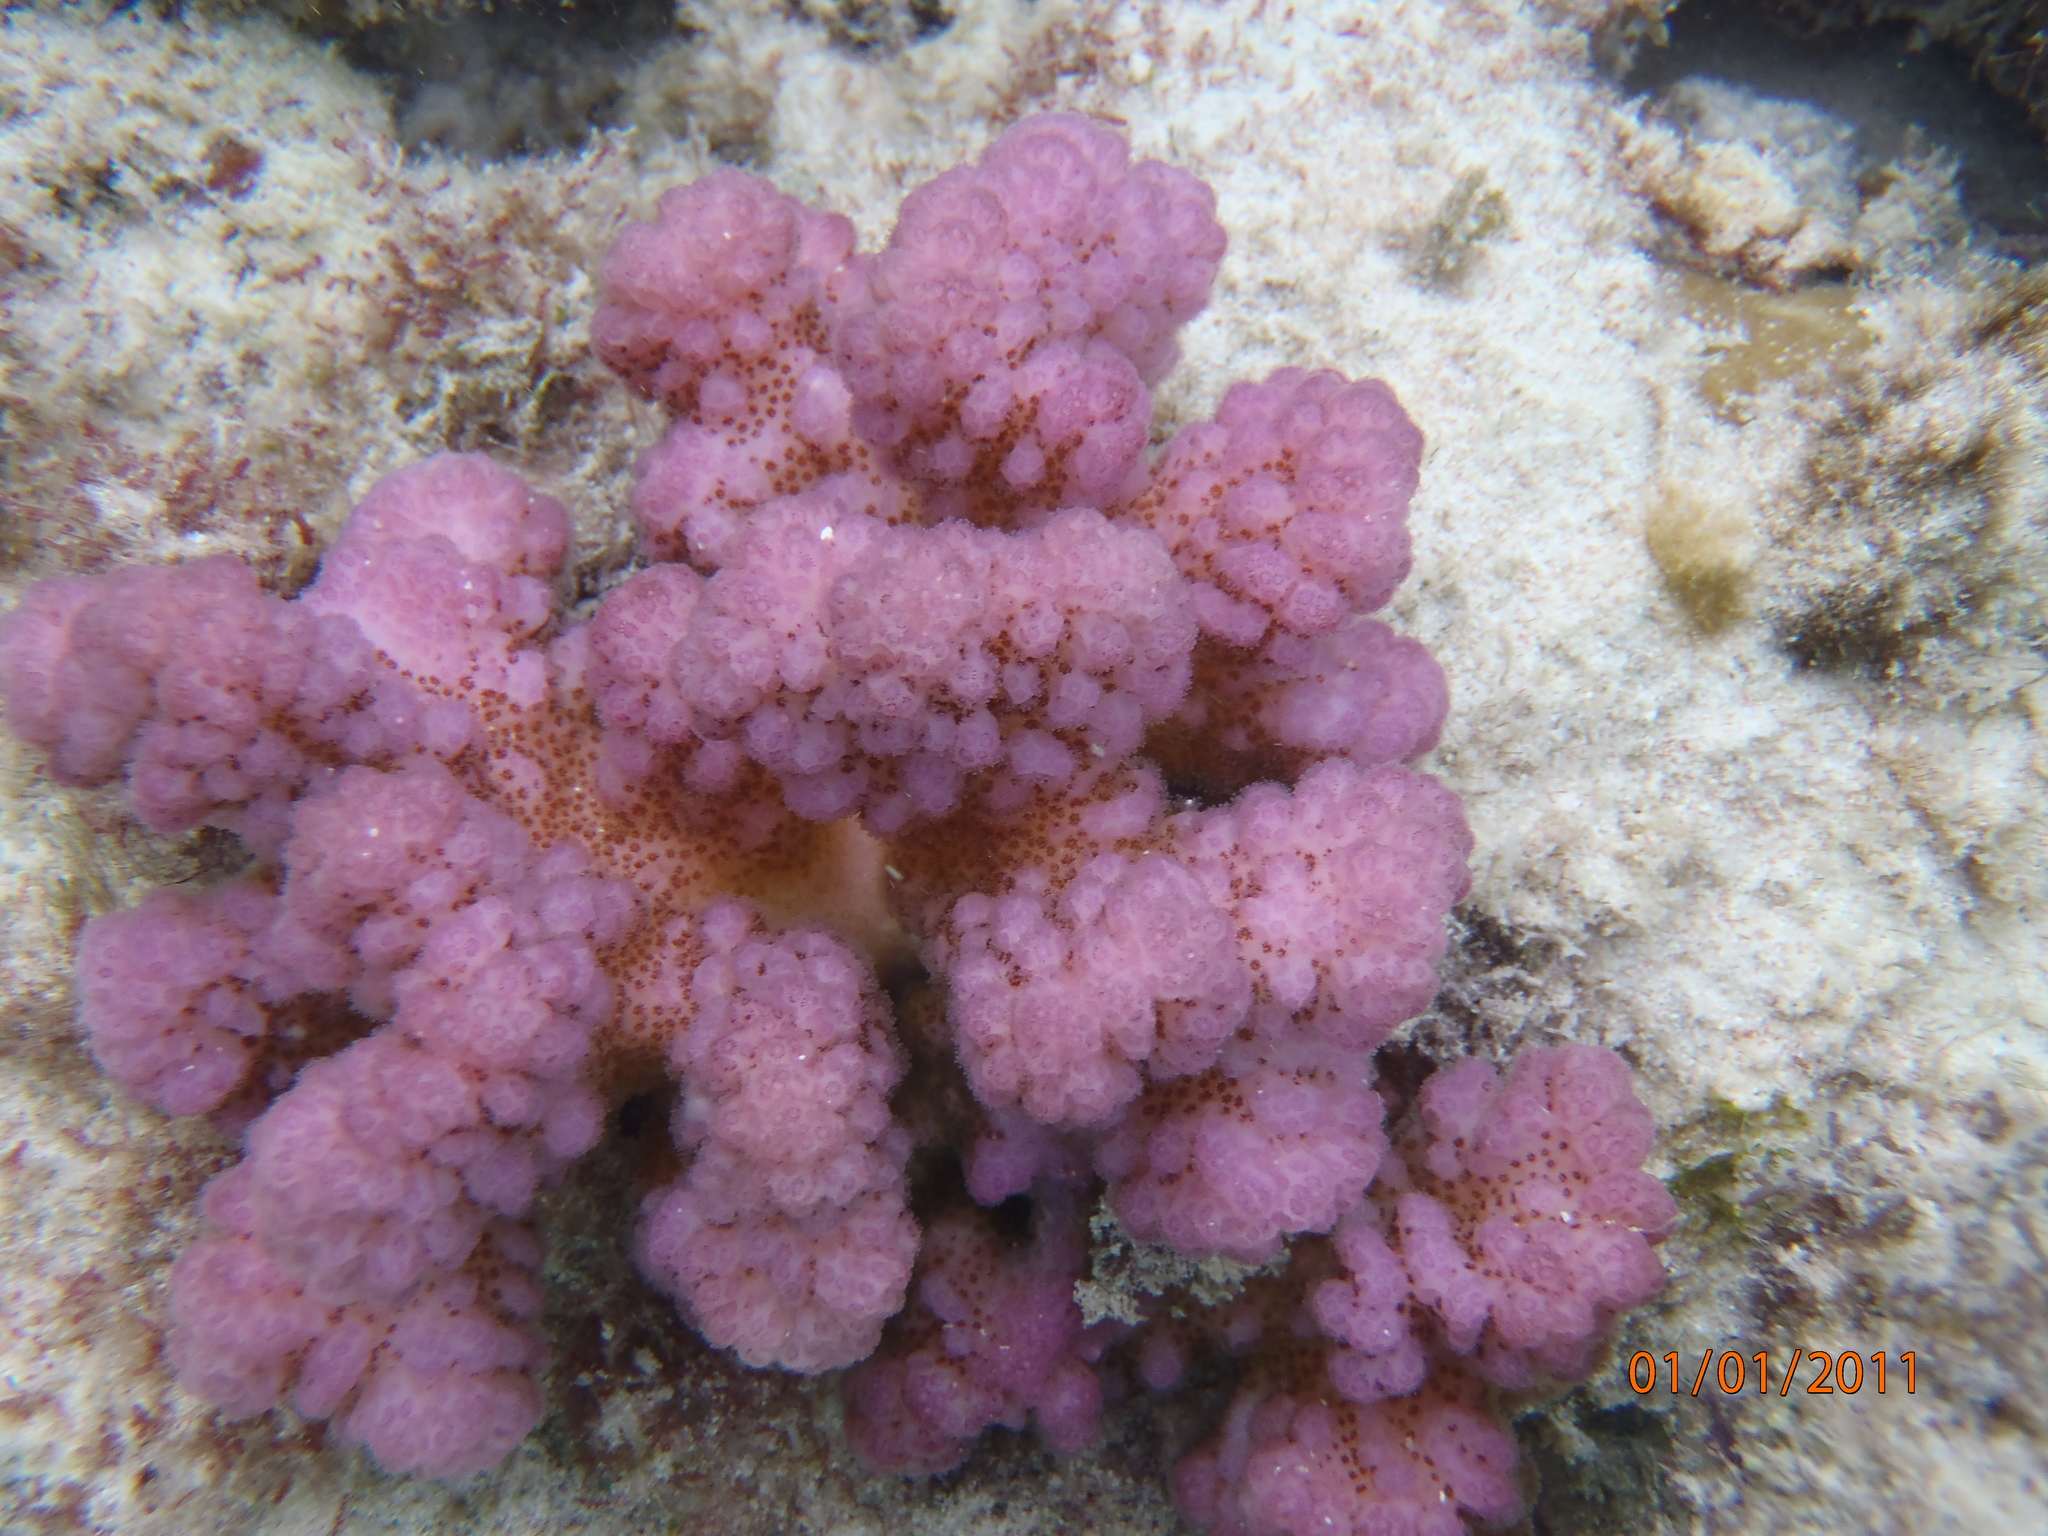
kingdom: Animalia
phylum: Cnidaria
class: Anthozoa
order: Scleractinia
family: Pocilloporidae
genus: Pocillopora
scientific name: Pocillopora verrucosa
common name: Cauliflower coral
